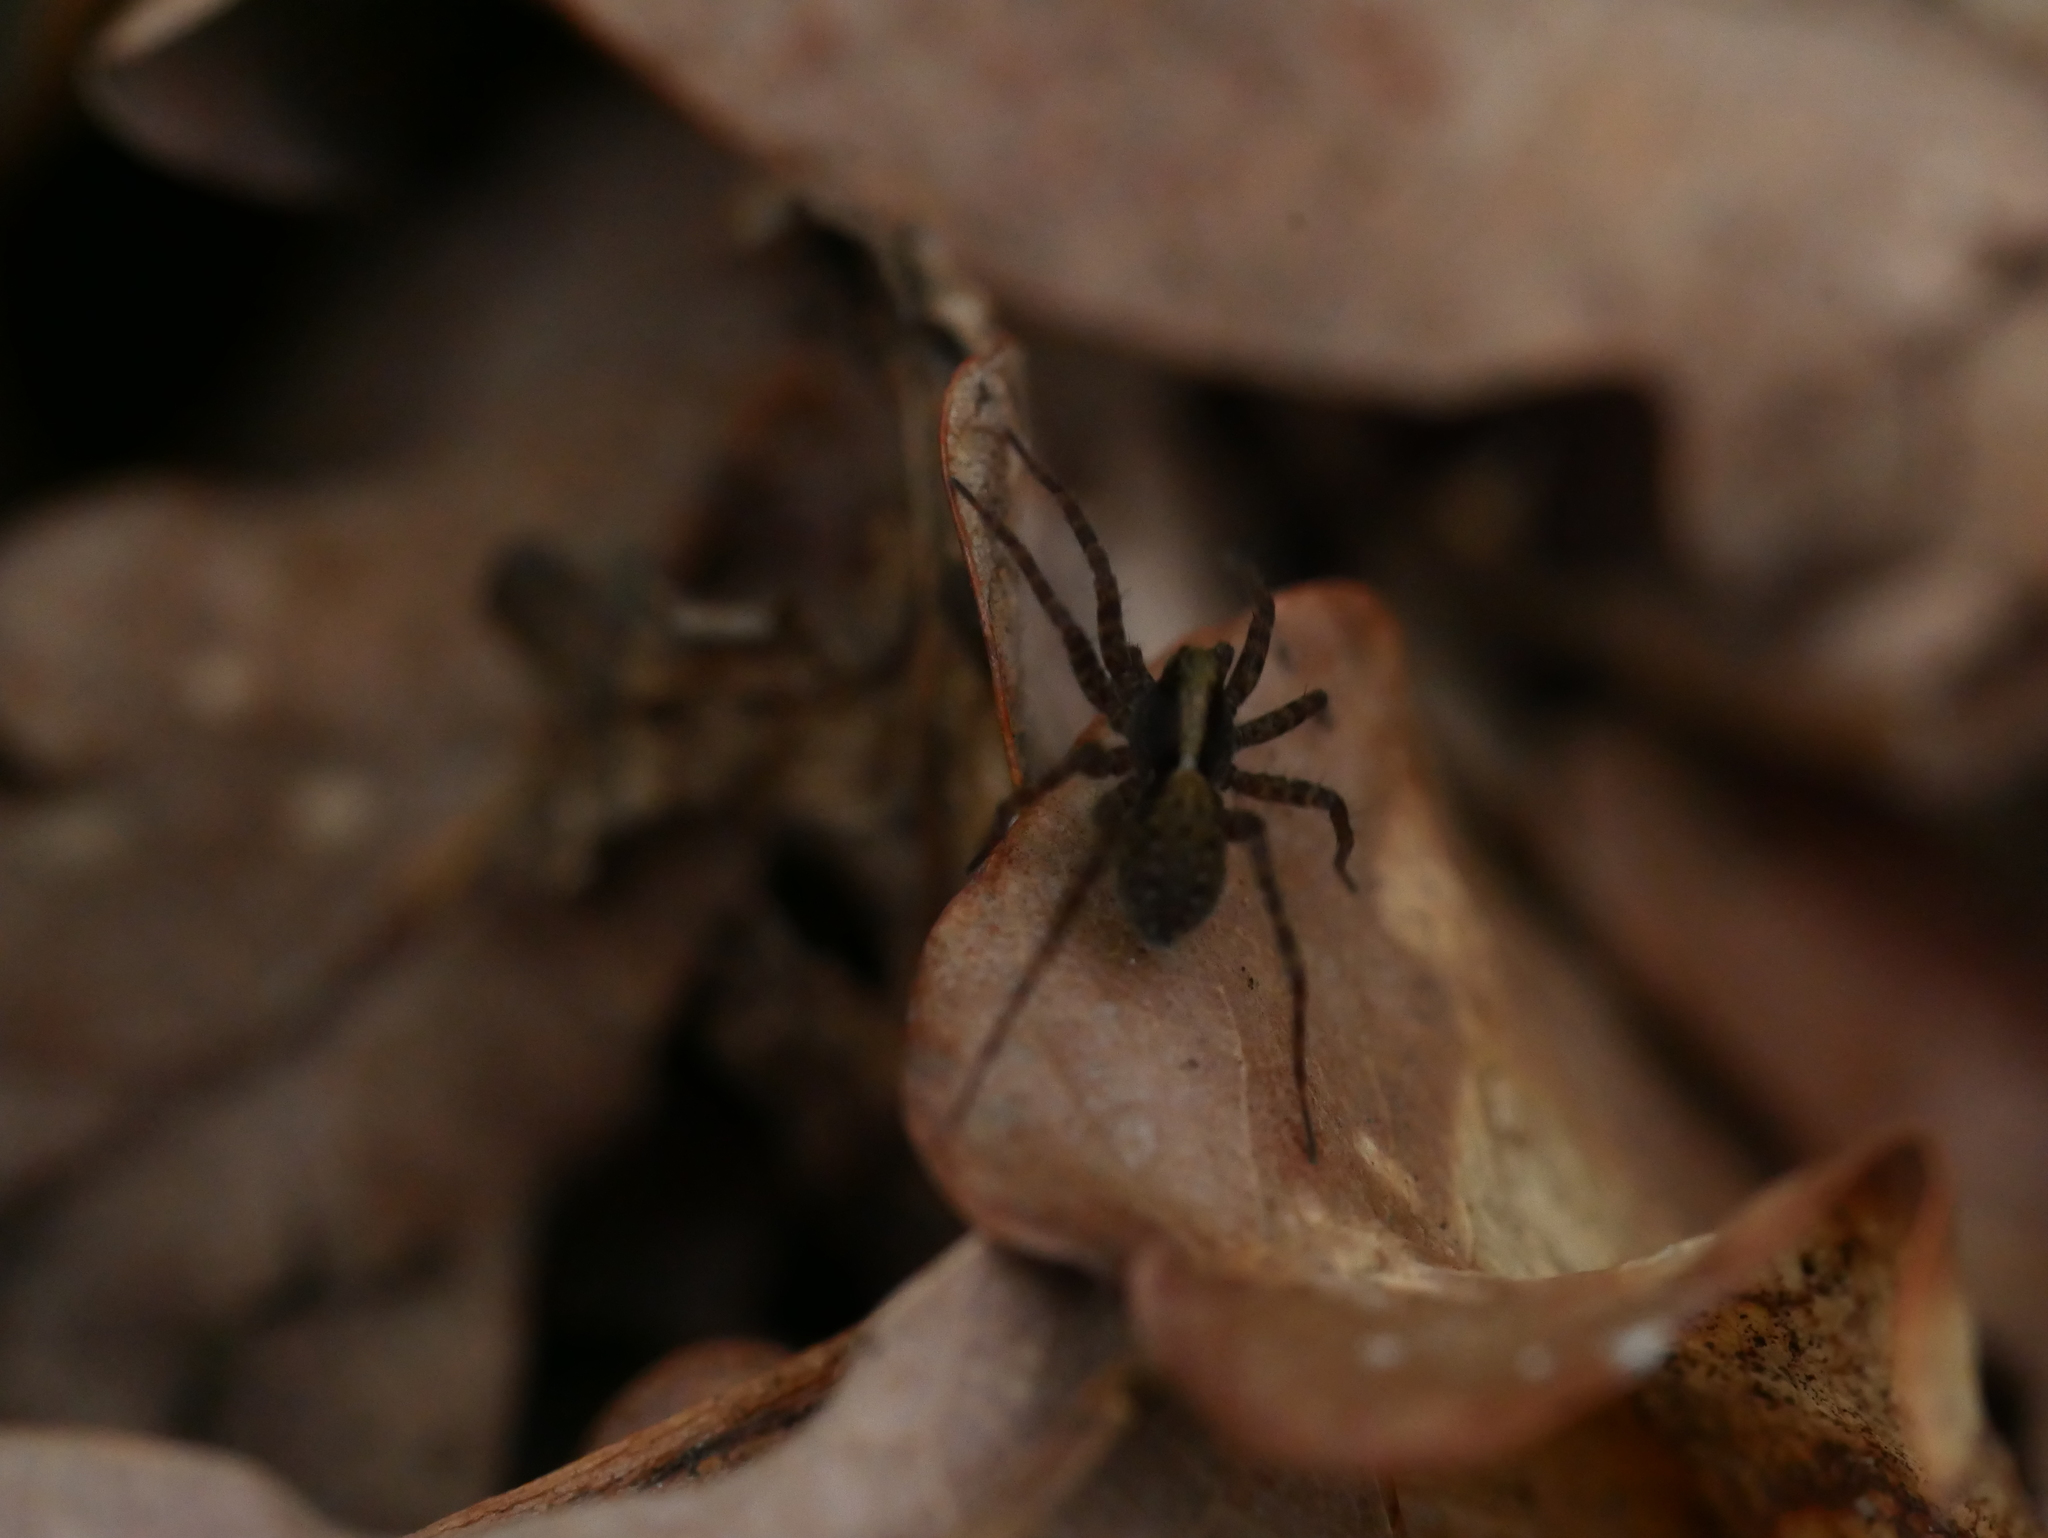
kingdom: Animalia
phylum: Arthropoda
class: Arachnida
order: Araneae
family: Lycosidae
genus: Pardosa
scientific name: Pardosa
